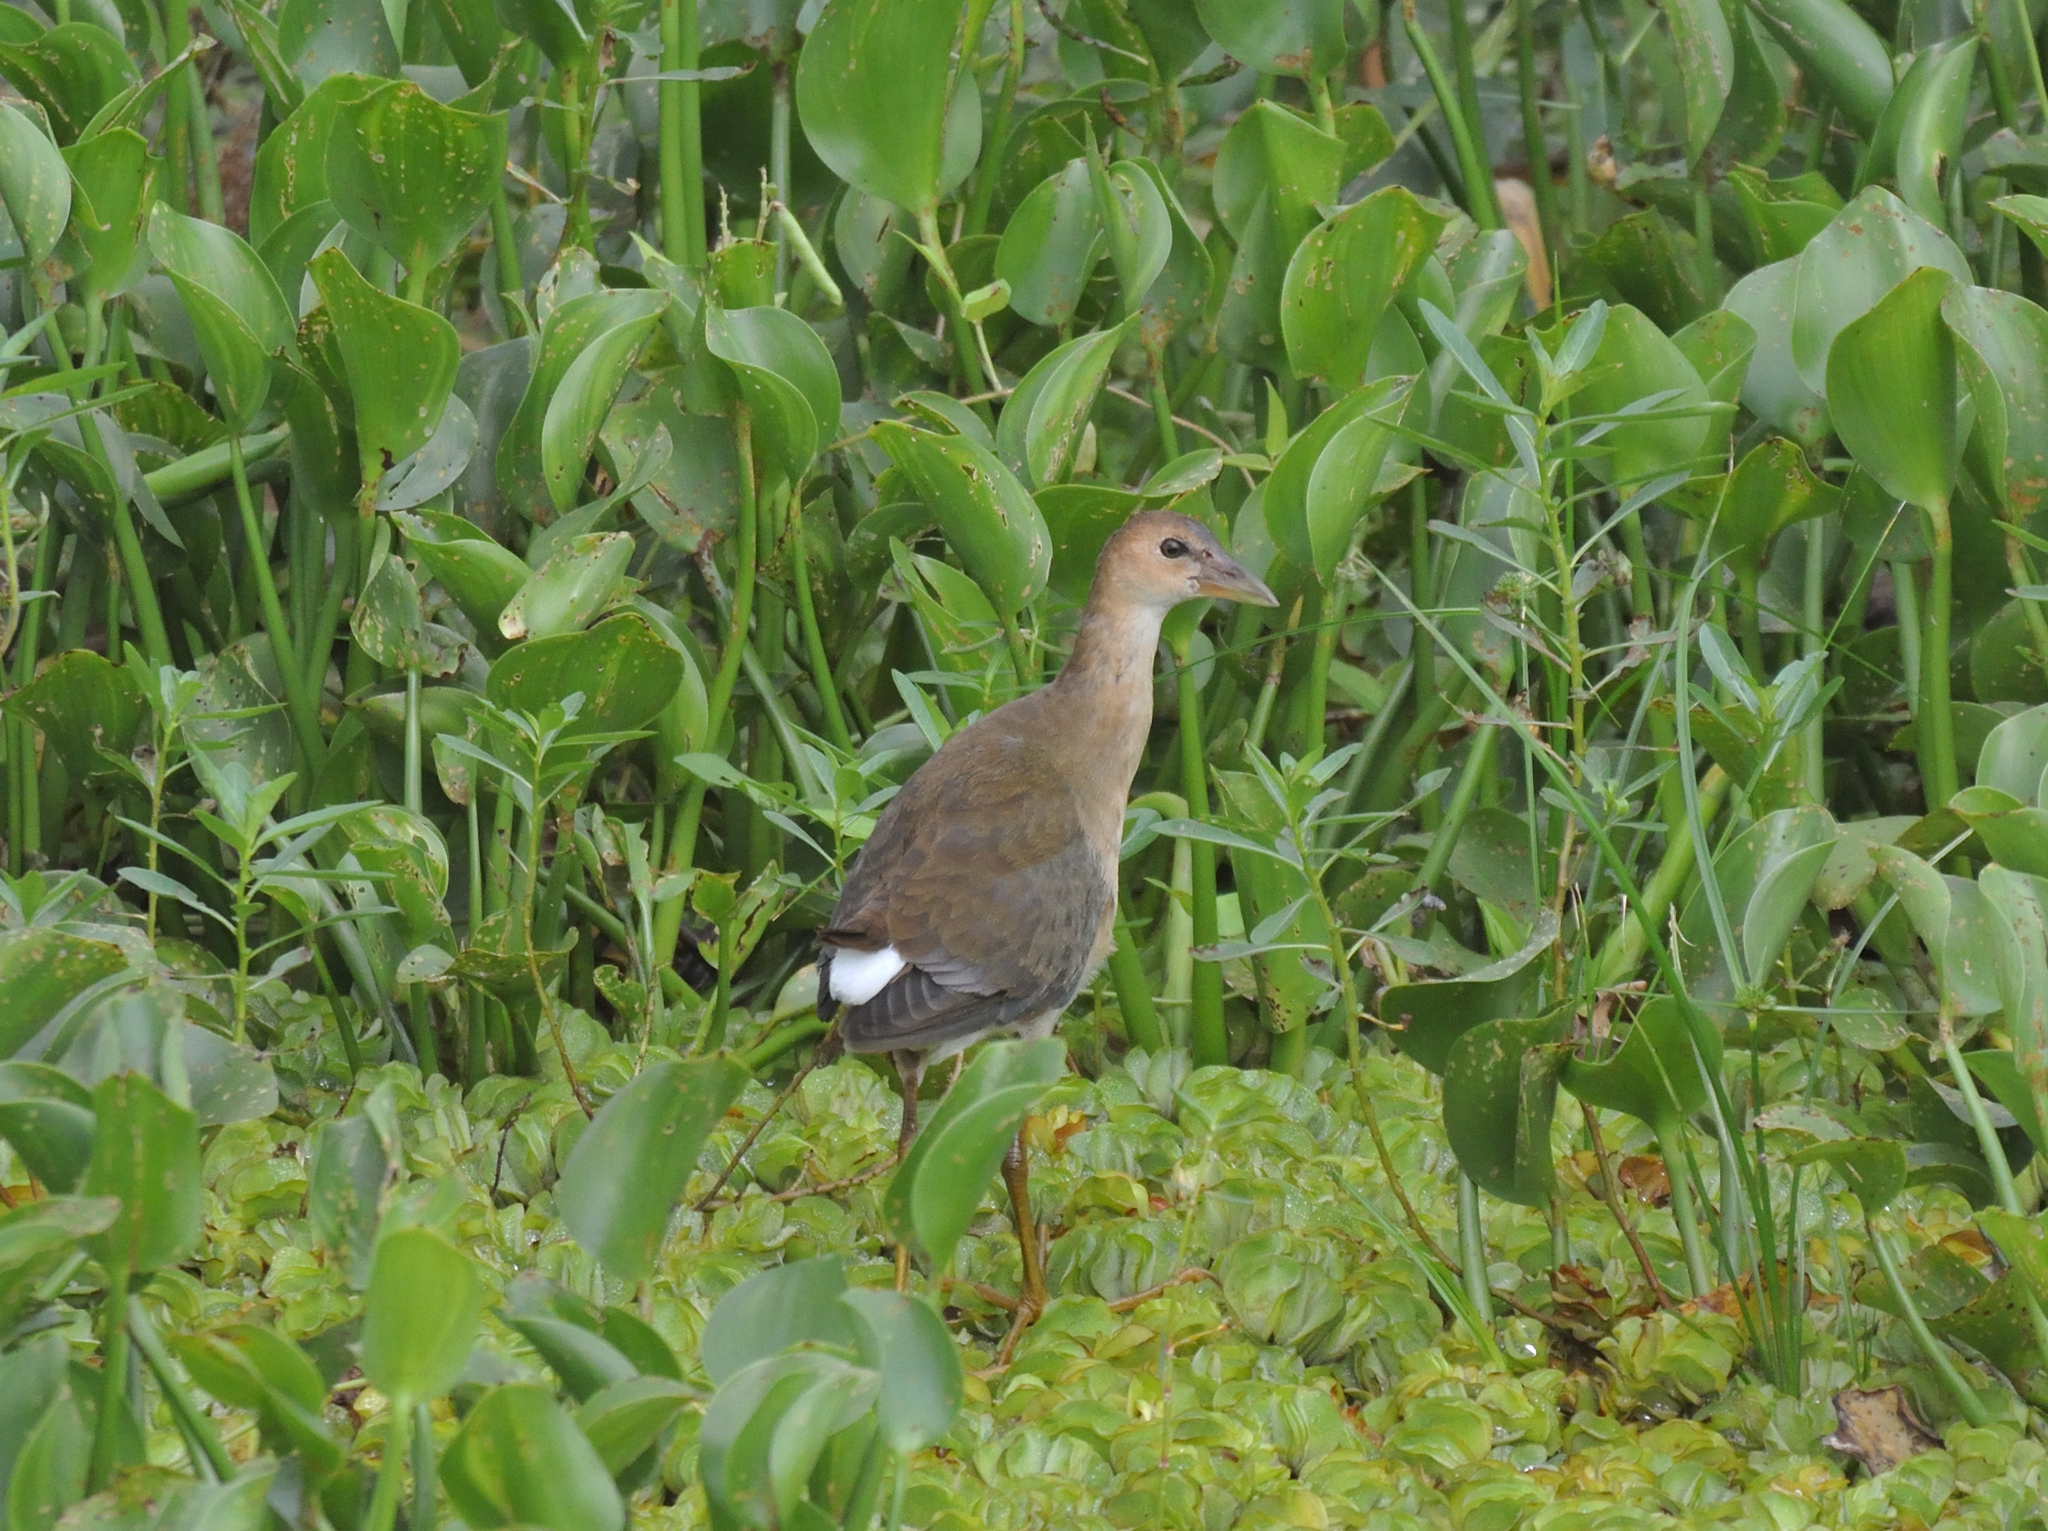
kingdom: Animalia
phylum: Chordata
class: Aves
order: Gruiformes
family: Rallidae
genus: Porphyrio
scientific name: Porphyrio martinica
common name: Purple gallinule
